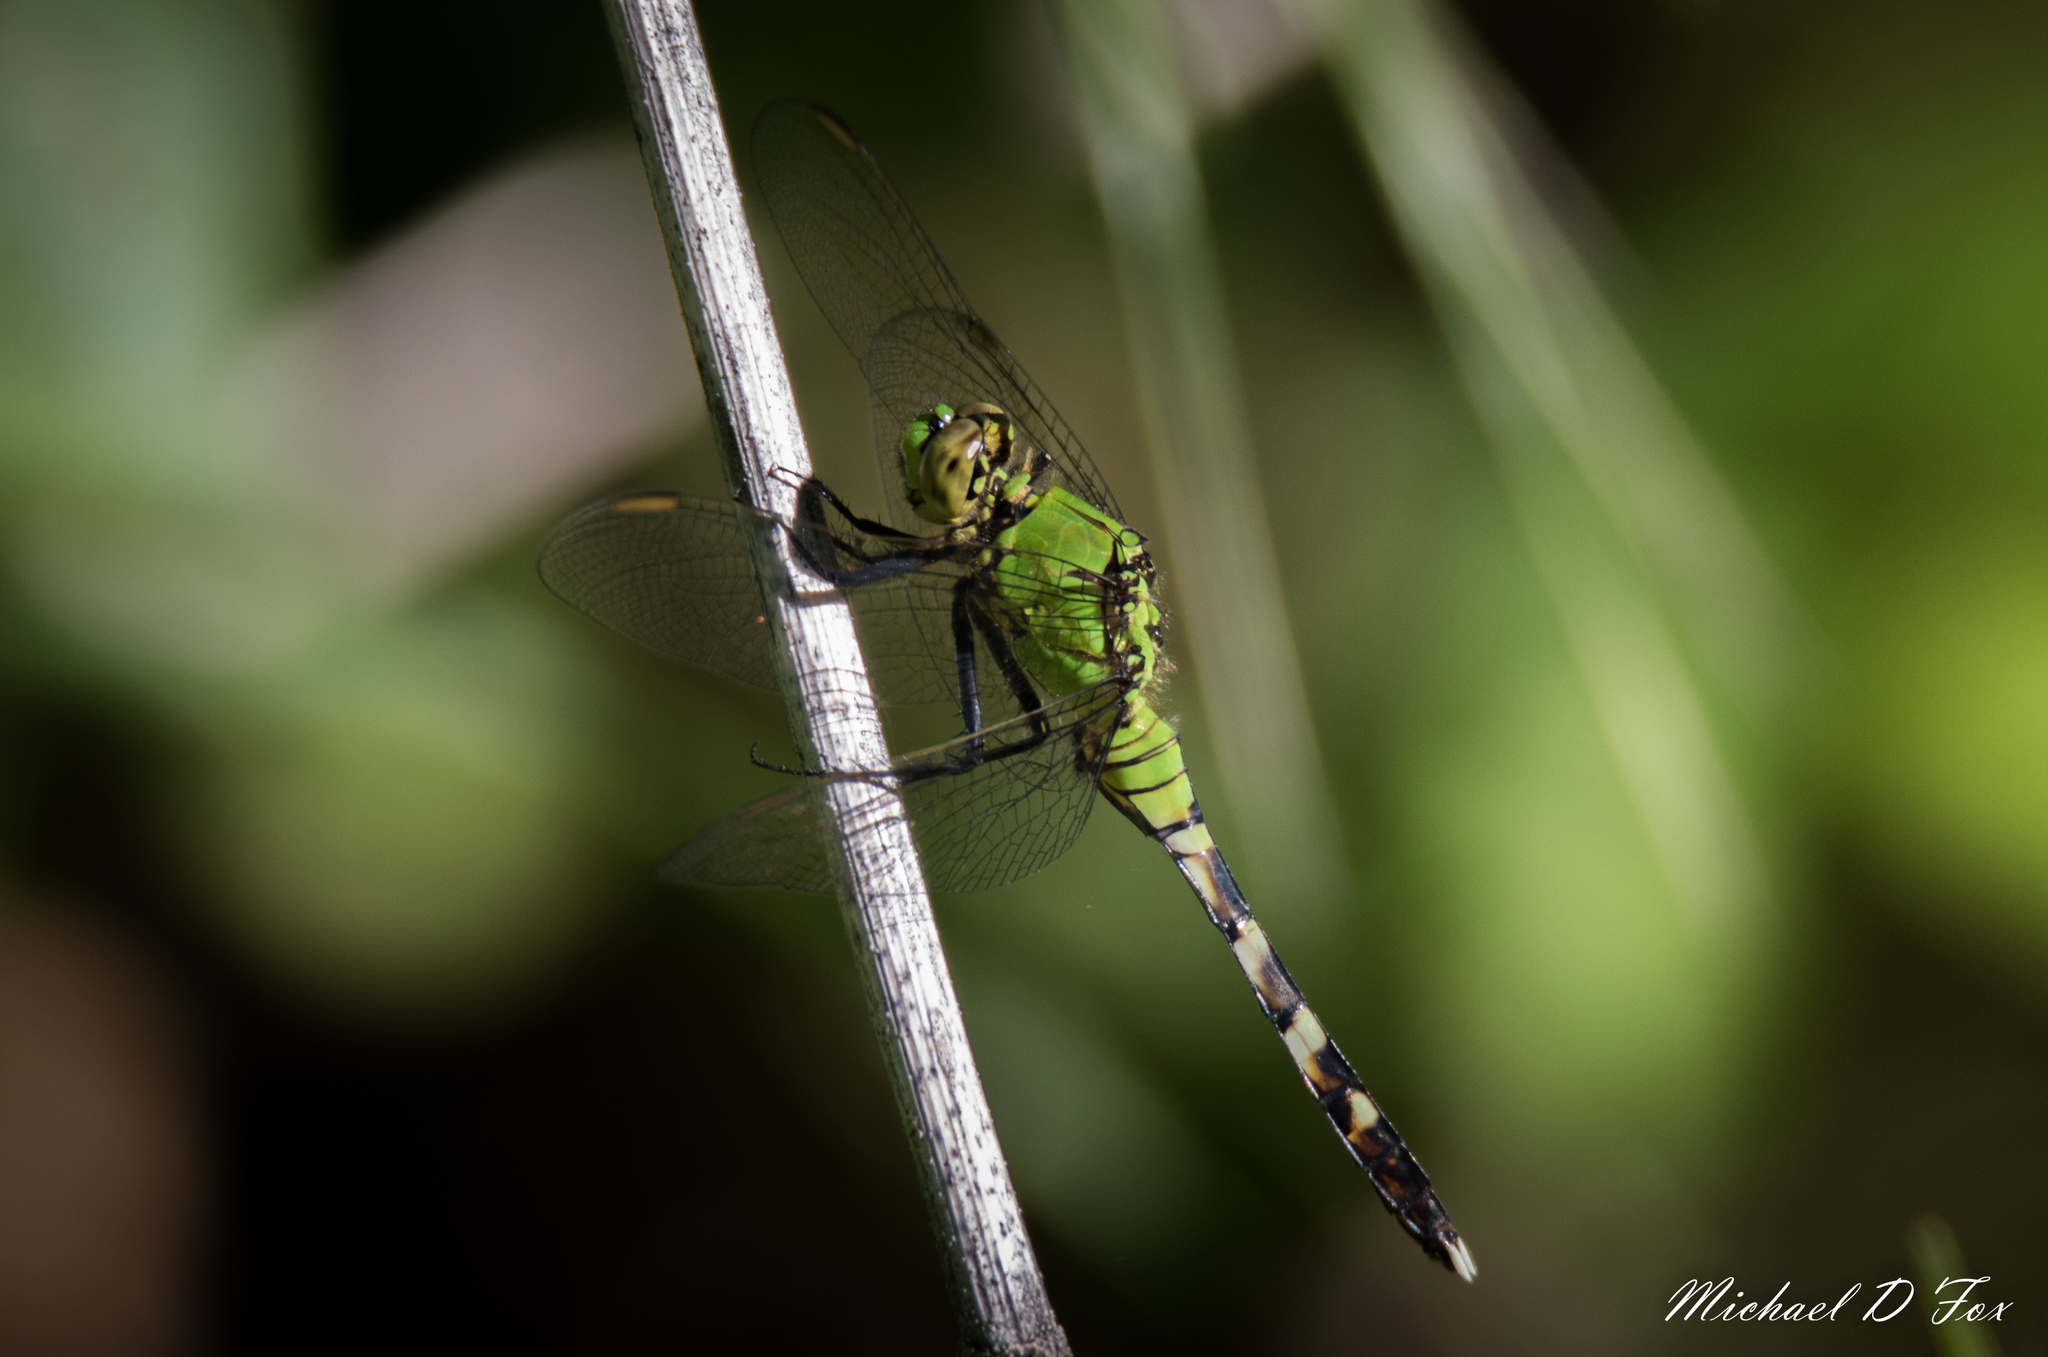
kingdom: Animalia
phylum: Arthropoda
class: Insecta
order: Odonata
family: Libellulidae
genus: Erythemis
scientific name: Erythemis simplicicollis
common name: Eastern pondhawk
